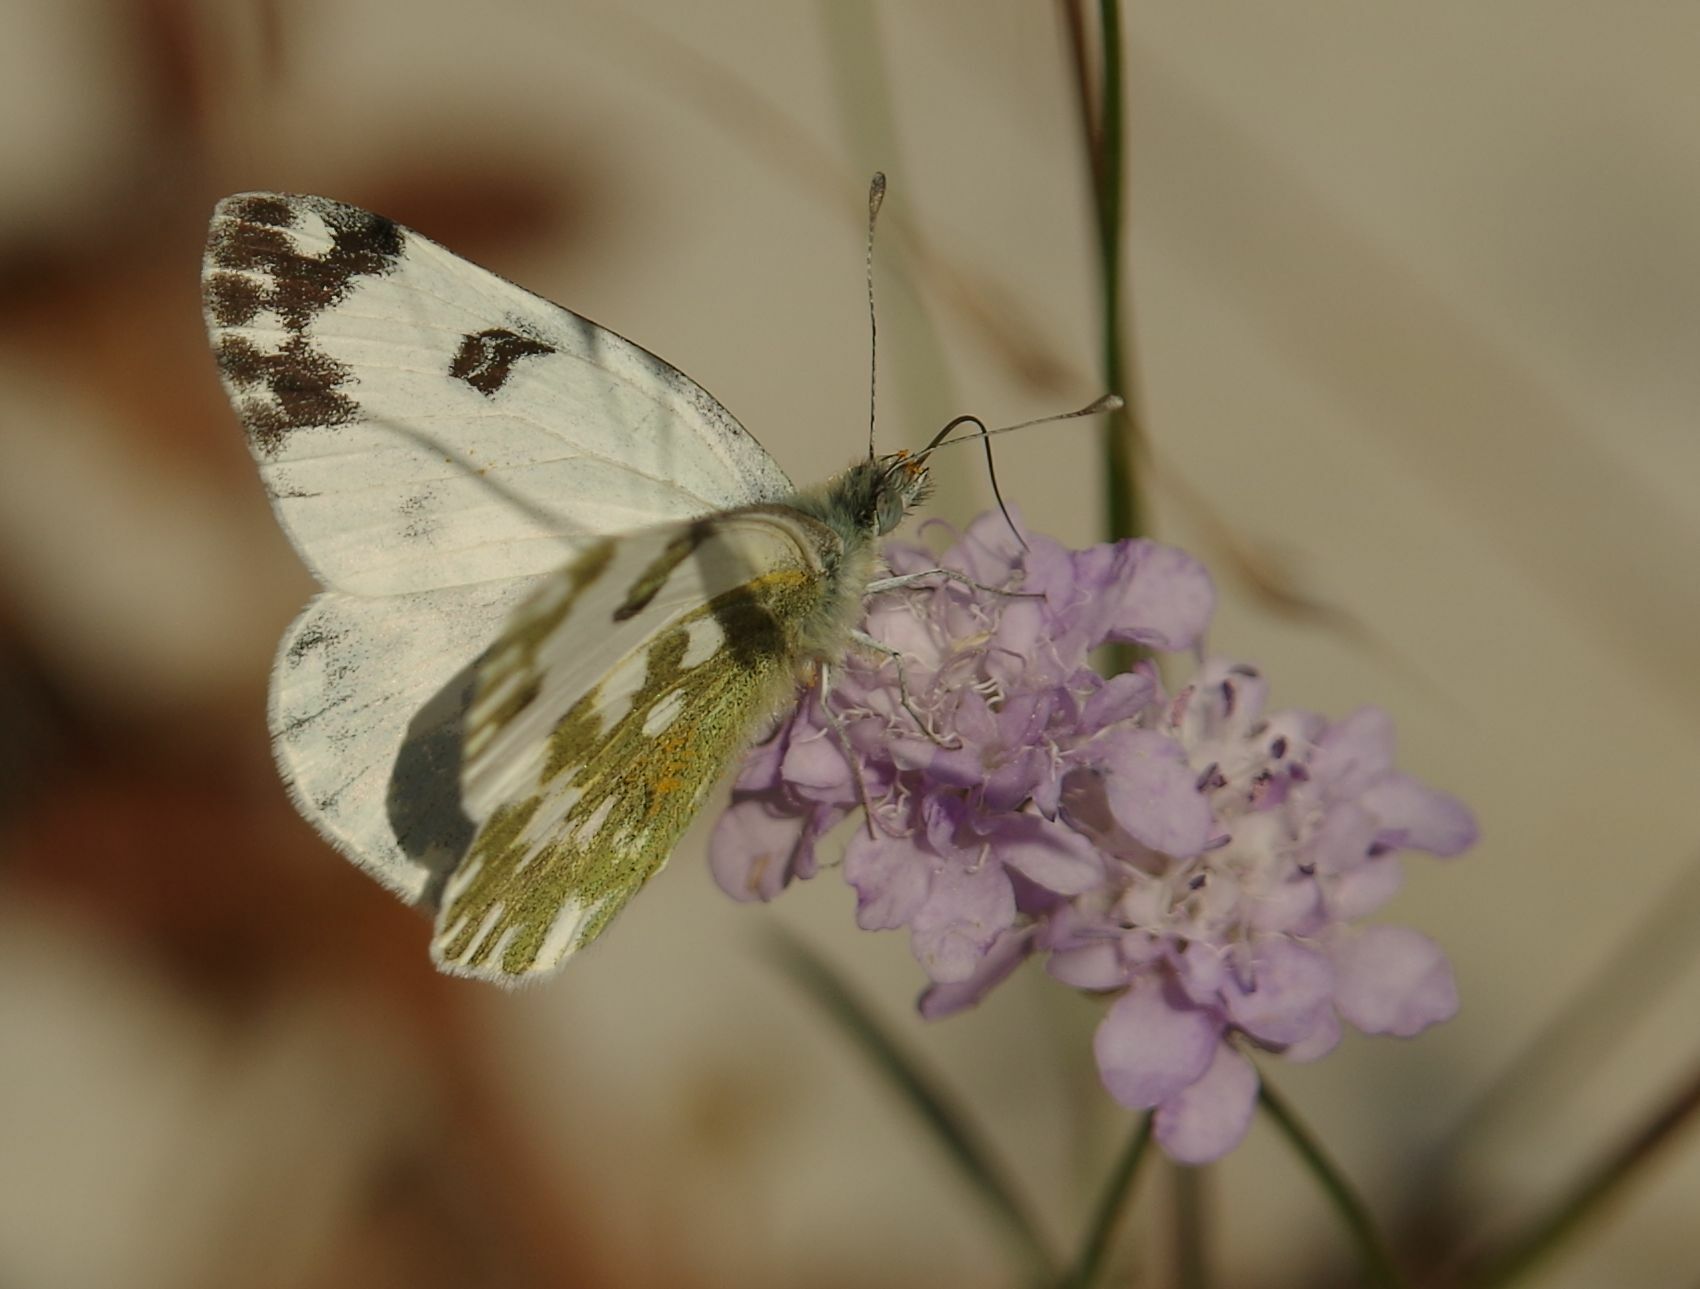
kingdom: Animalia
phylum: Arthropoda
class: Insecta
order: Lepidoptera
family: Pieridae
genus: Pontia
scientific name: Pontia edusa
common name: Eastern bath white
